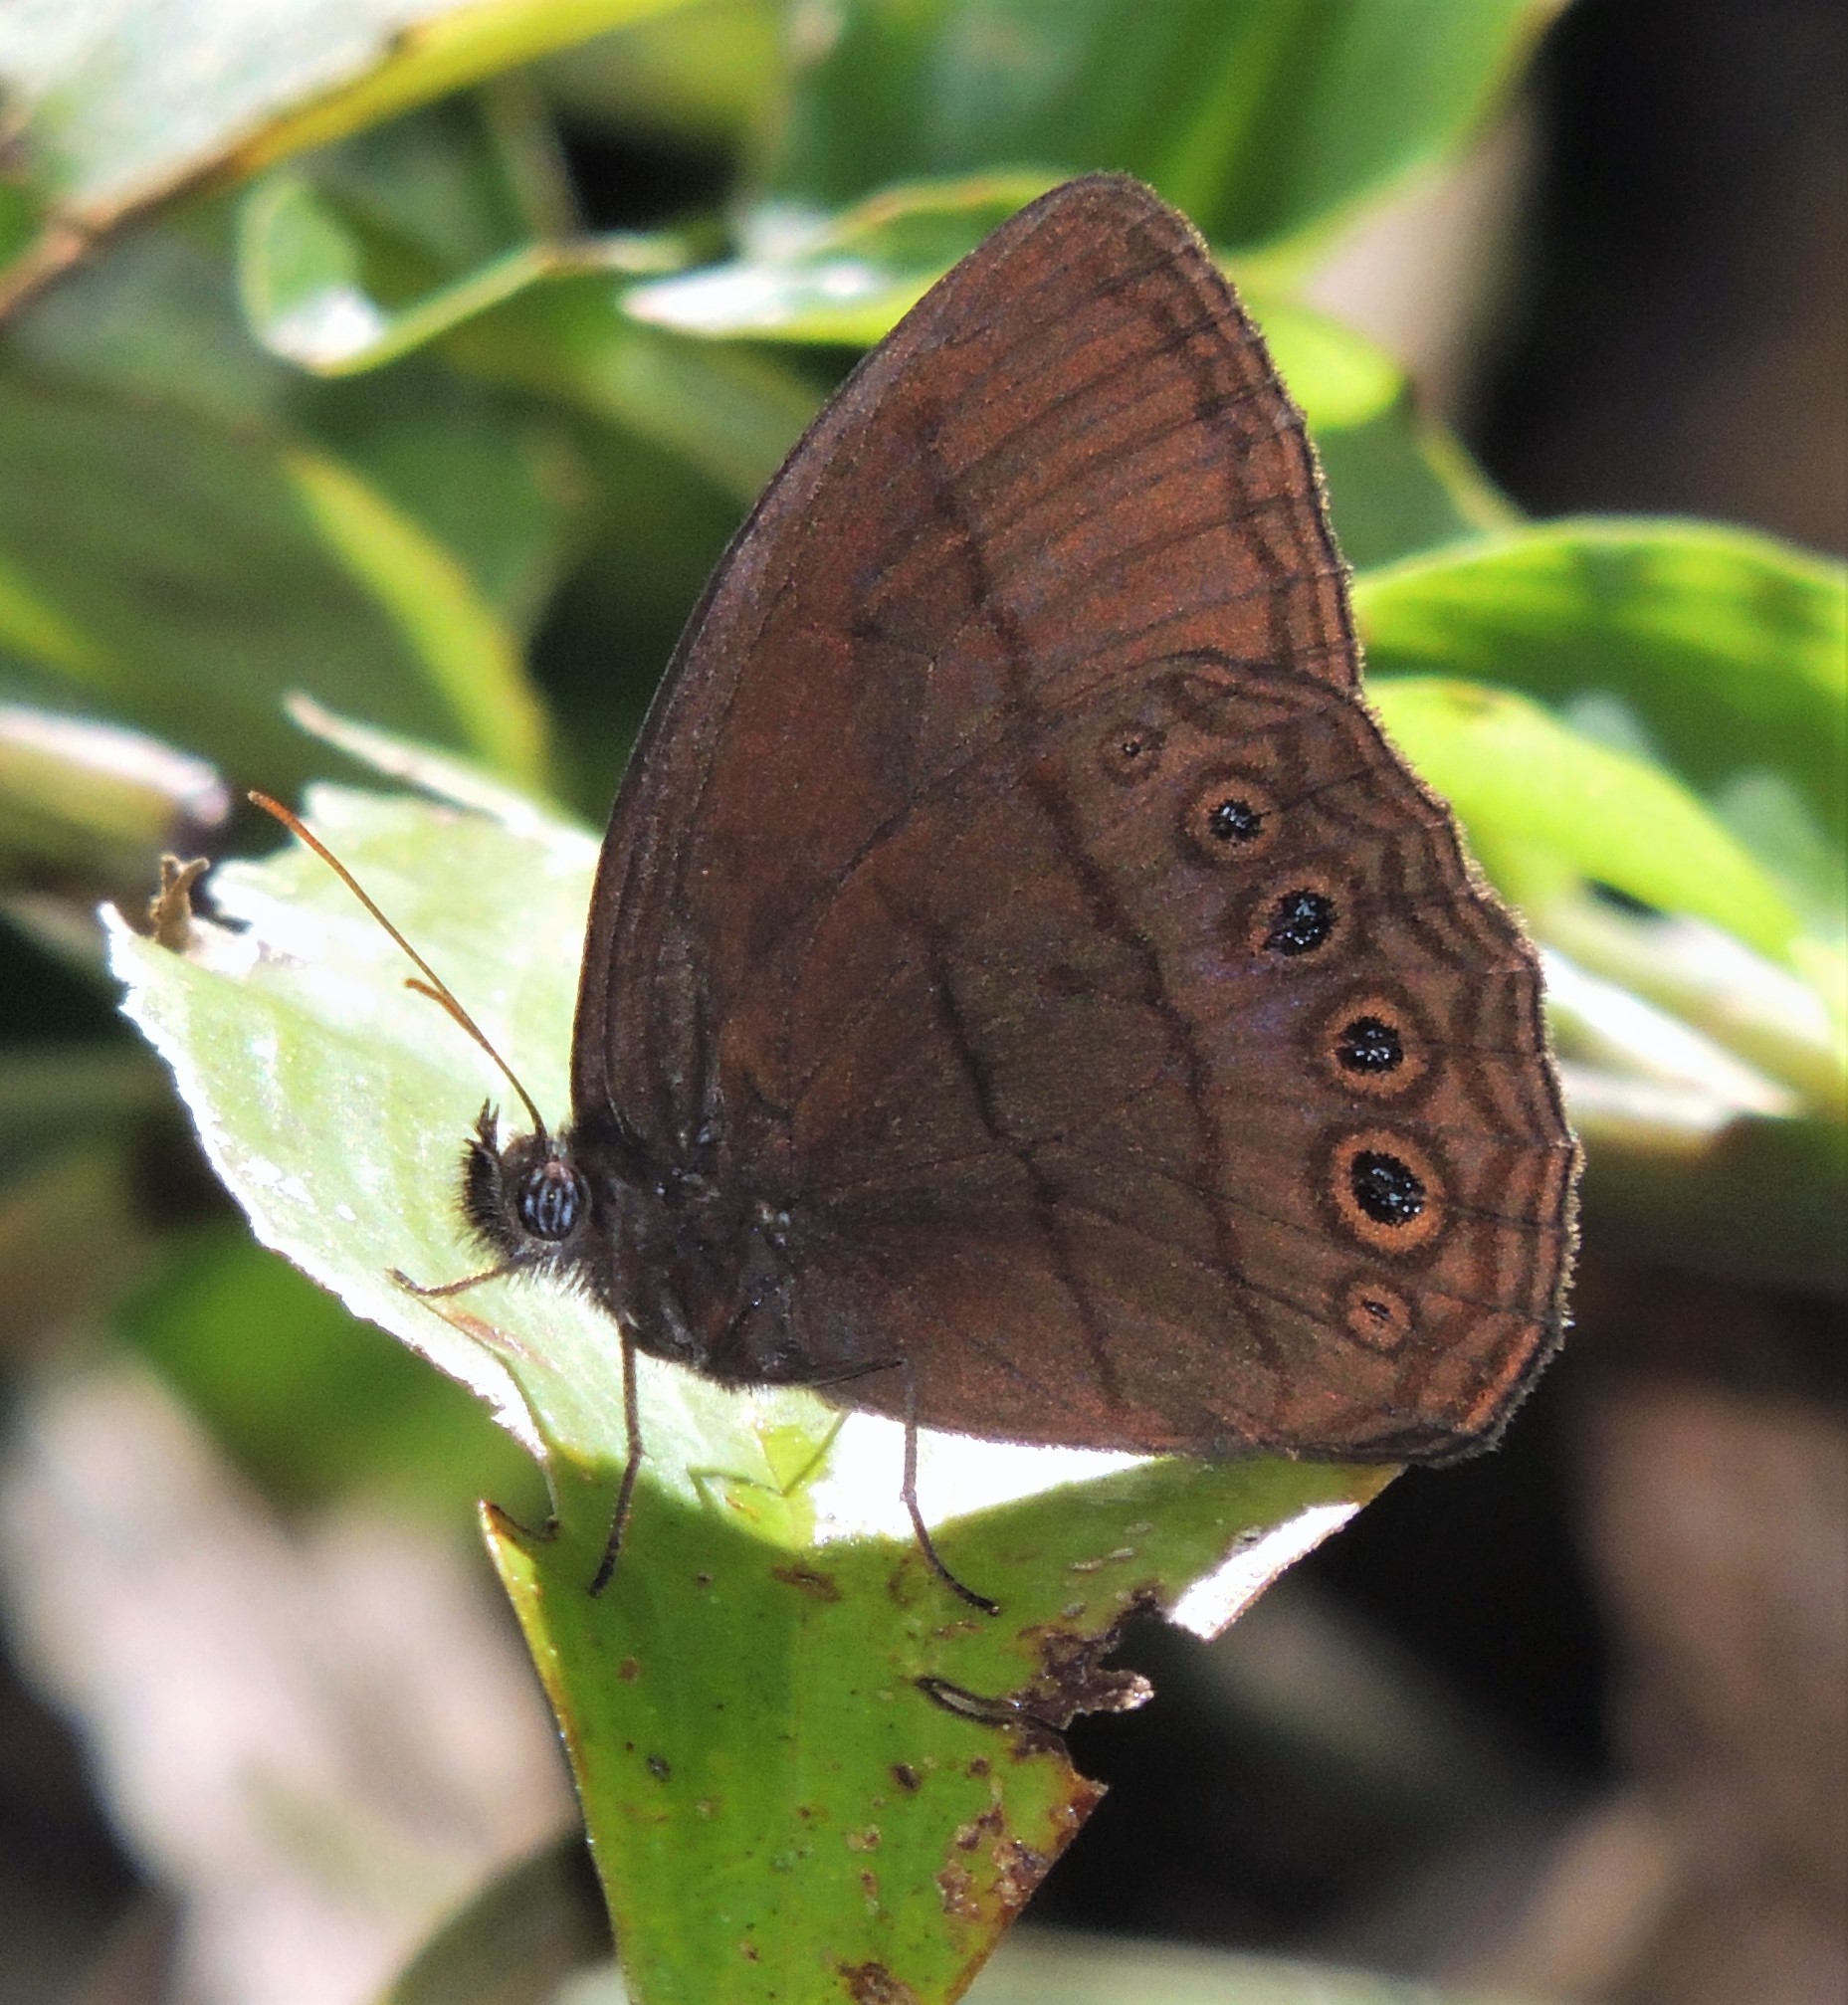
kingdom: Animalia
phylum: Arthropoda
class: Insecta
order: Lepidoptera
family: Nymphalidae
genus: Zischkaia
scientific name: Zischkaia pacarus
